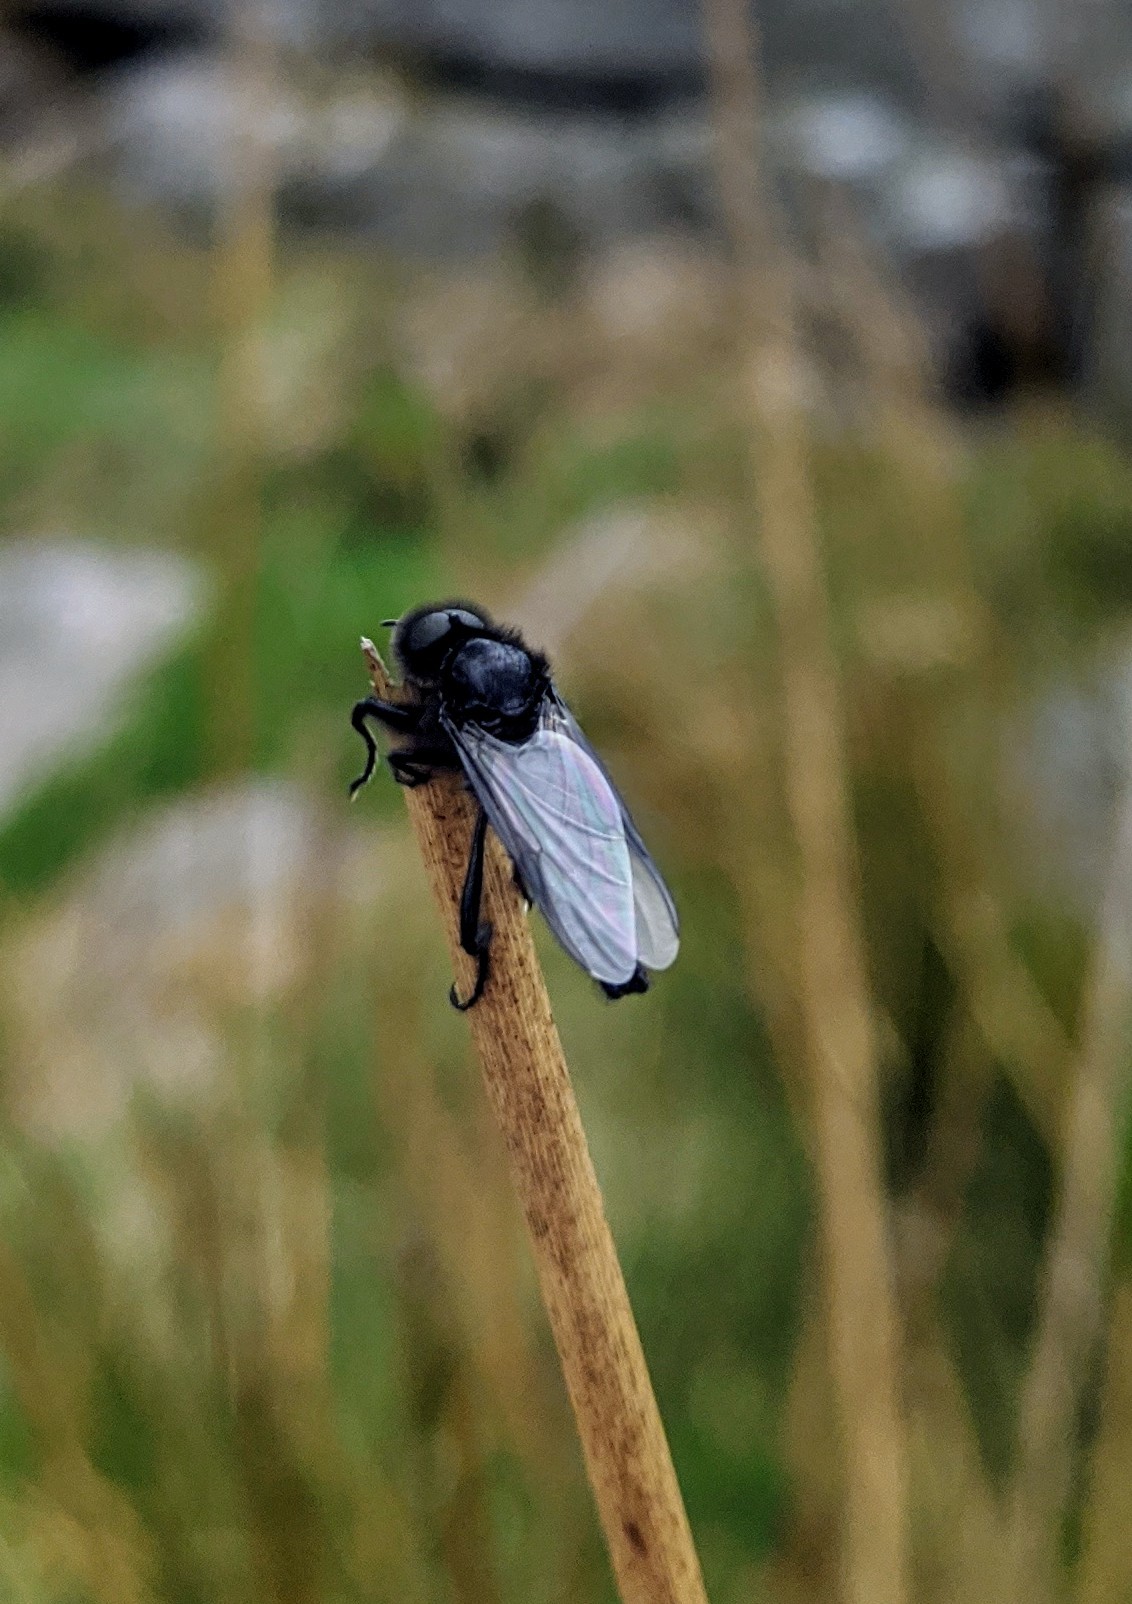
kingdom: Animalia
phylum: Arthropoda
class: Insecta
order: Diptera
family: Bibionidae
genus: Bibio
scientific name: Bibio marci
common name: St marks fly
